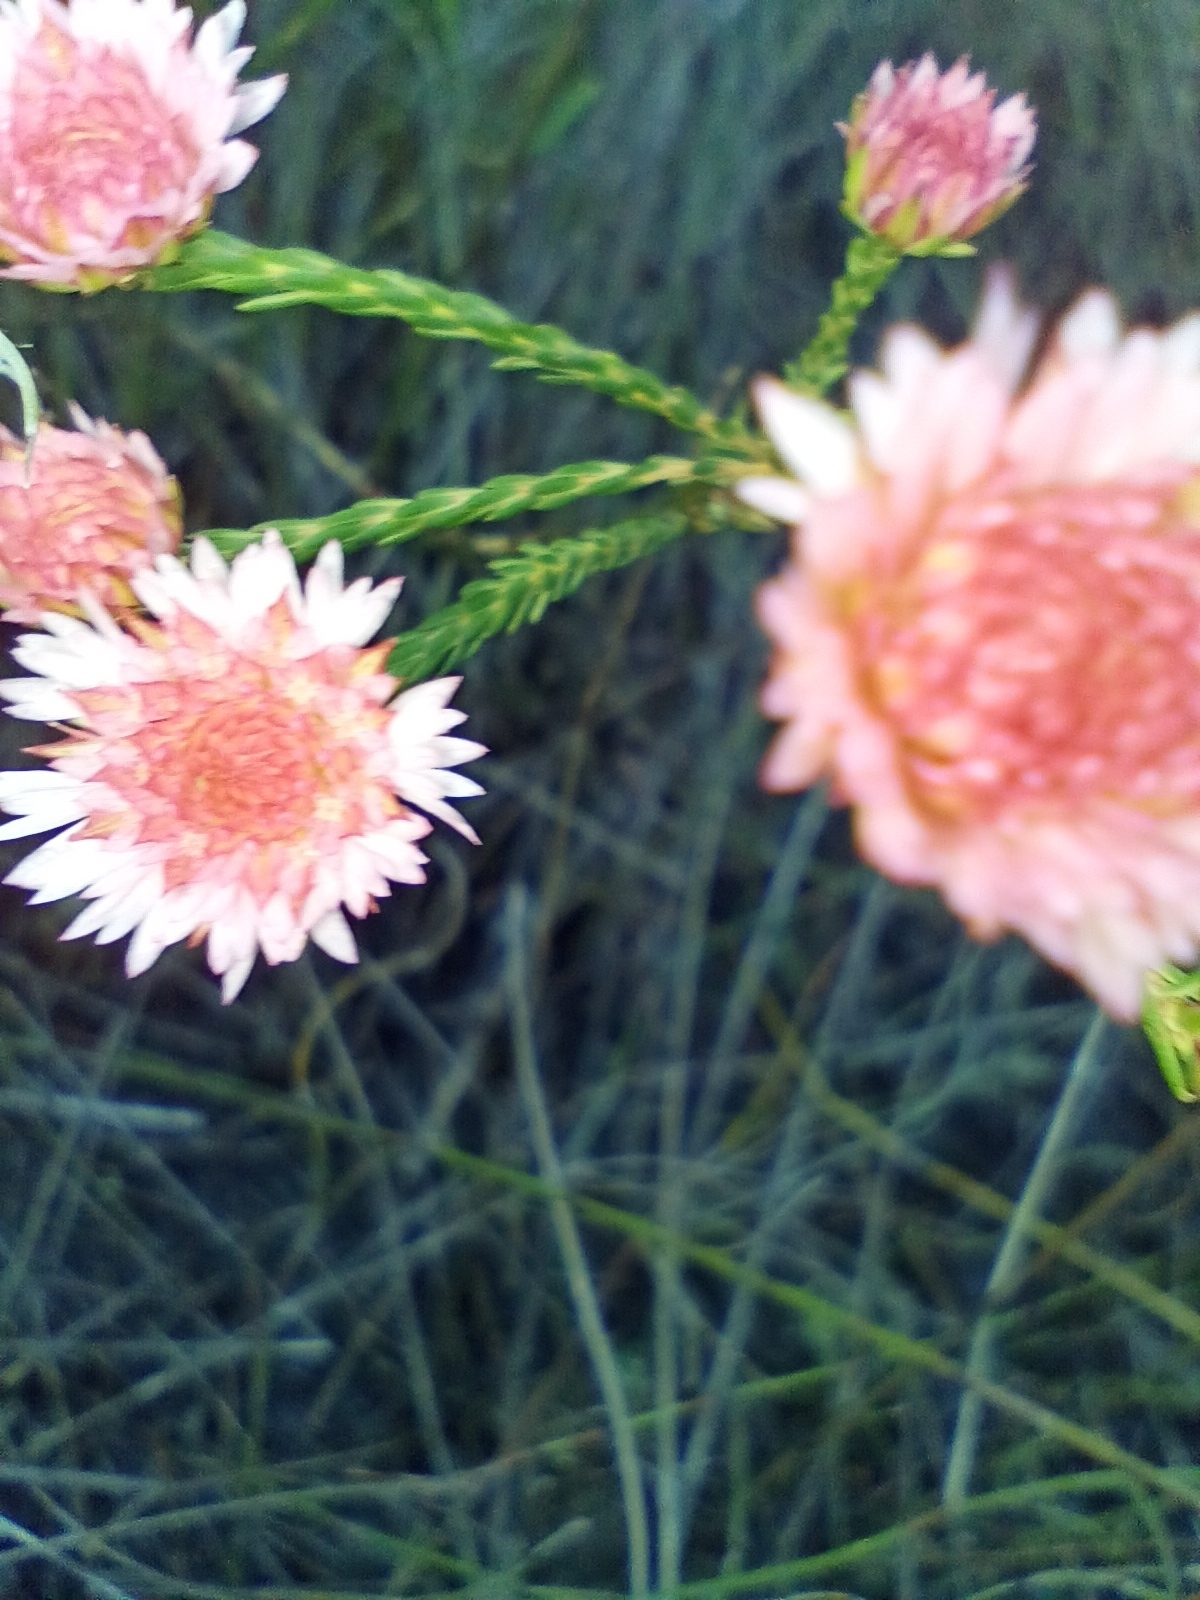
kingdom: Plantae
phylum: Tracheophyta
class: Magnoliopsida
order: Myrtales
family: Myrtaceae
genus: Actinodium
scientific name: Actinodium cunninghamii
